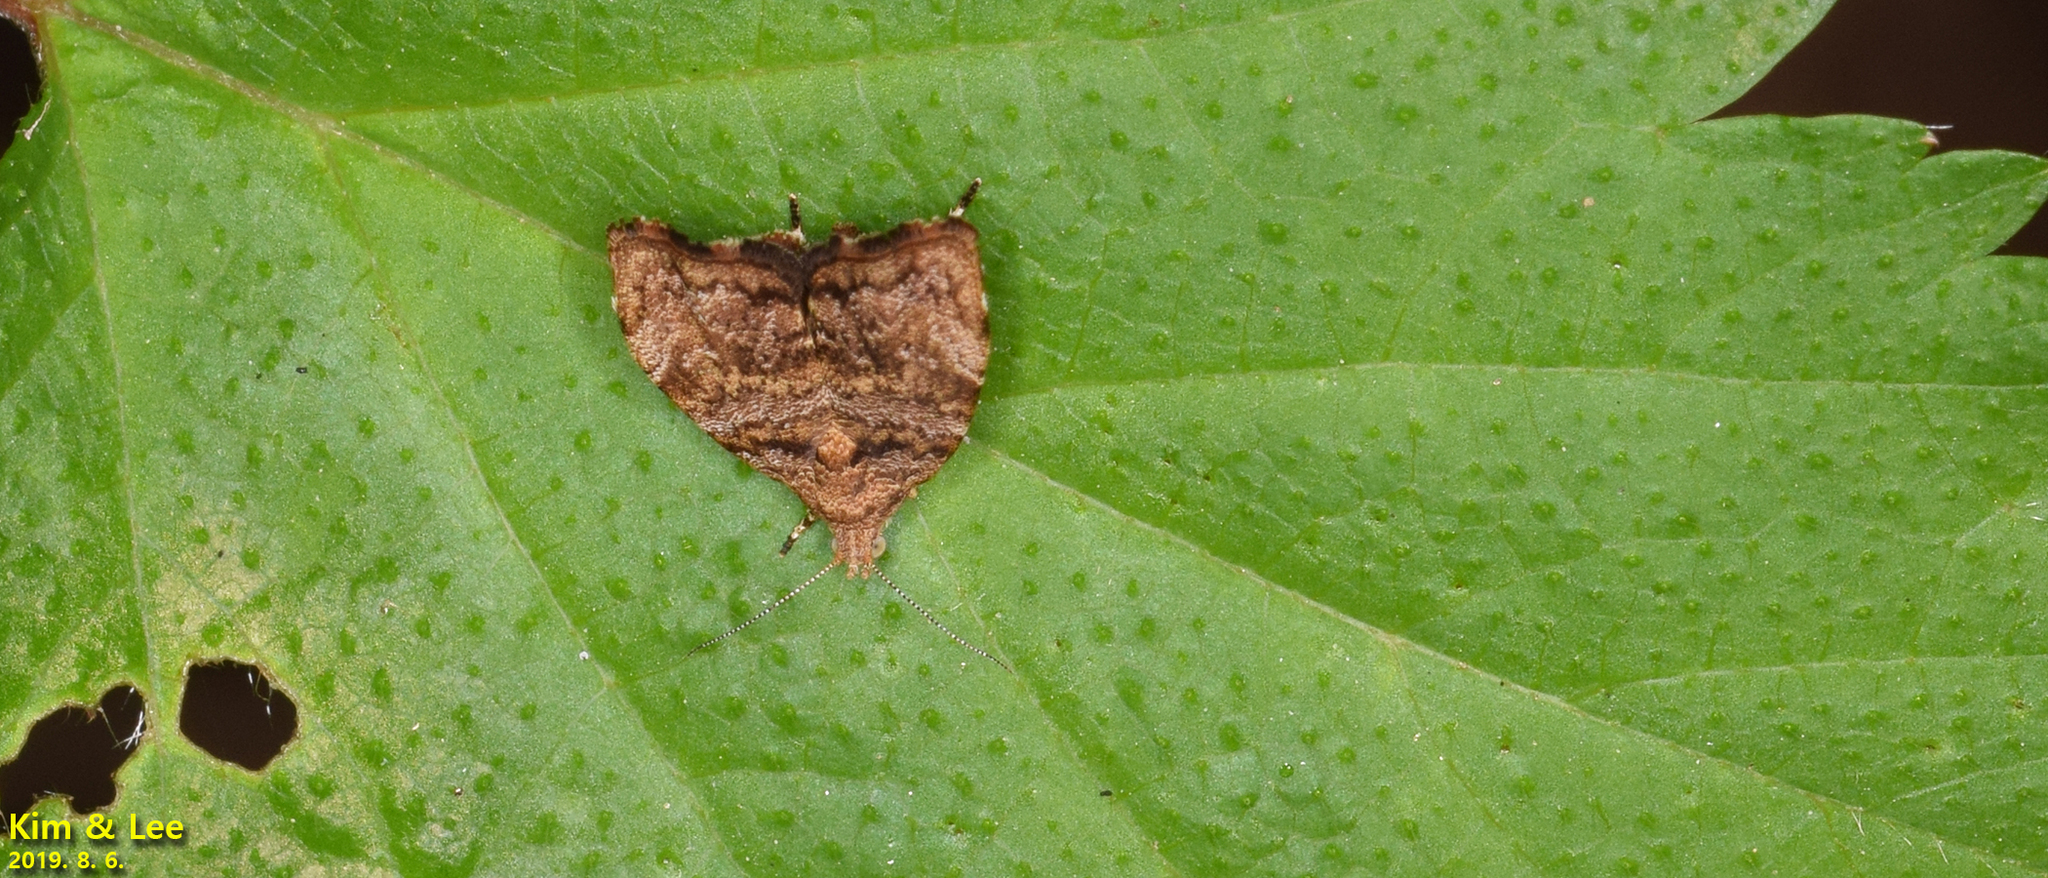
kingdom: Animalia
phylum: Arthropoda
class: Insecta
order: Lepidoptera
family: Choreutidae
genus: Anthophila
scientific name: Anthophila hyligenes
